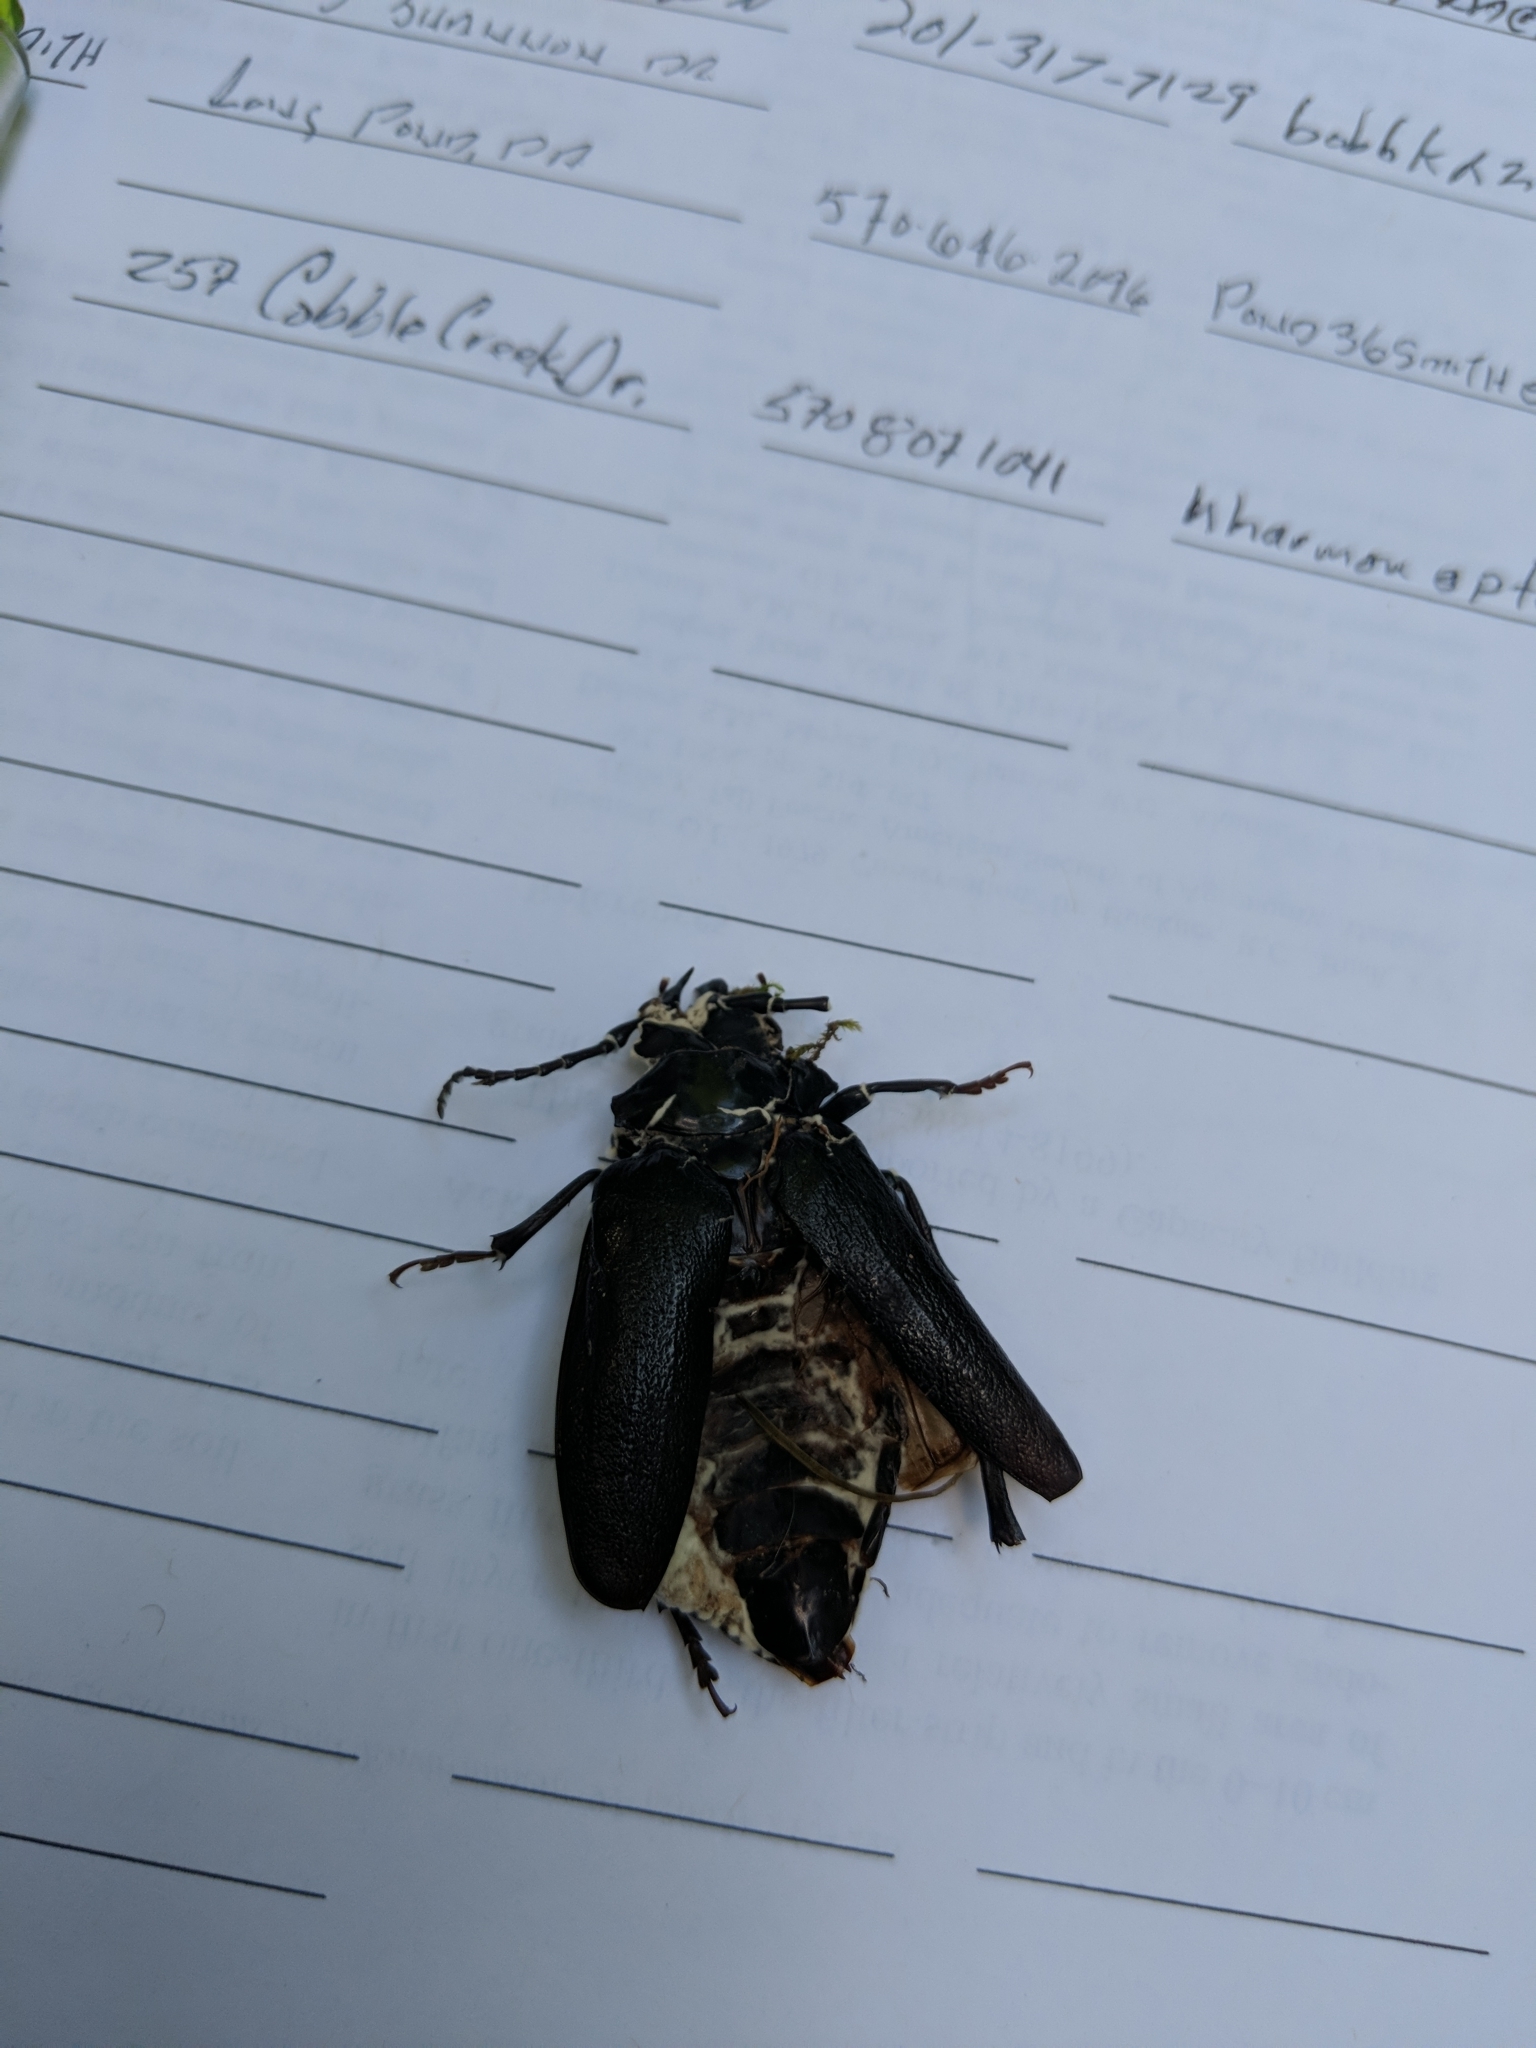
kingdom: Animalia
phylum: Arthropoda
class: Insecta
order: Coleoptera
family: Cerambycidae
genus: Prionus
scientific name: Prionus laticollis
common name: Broad necked prionus
